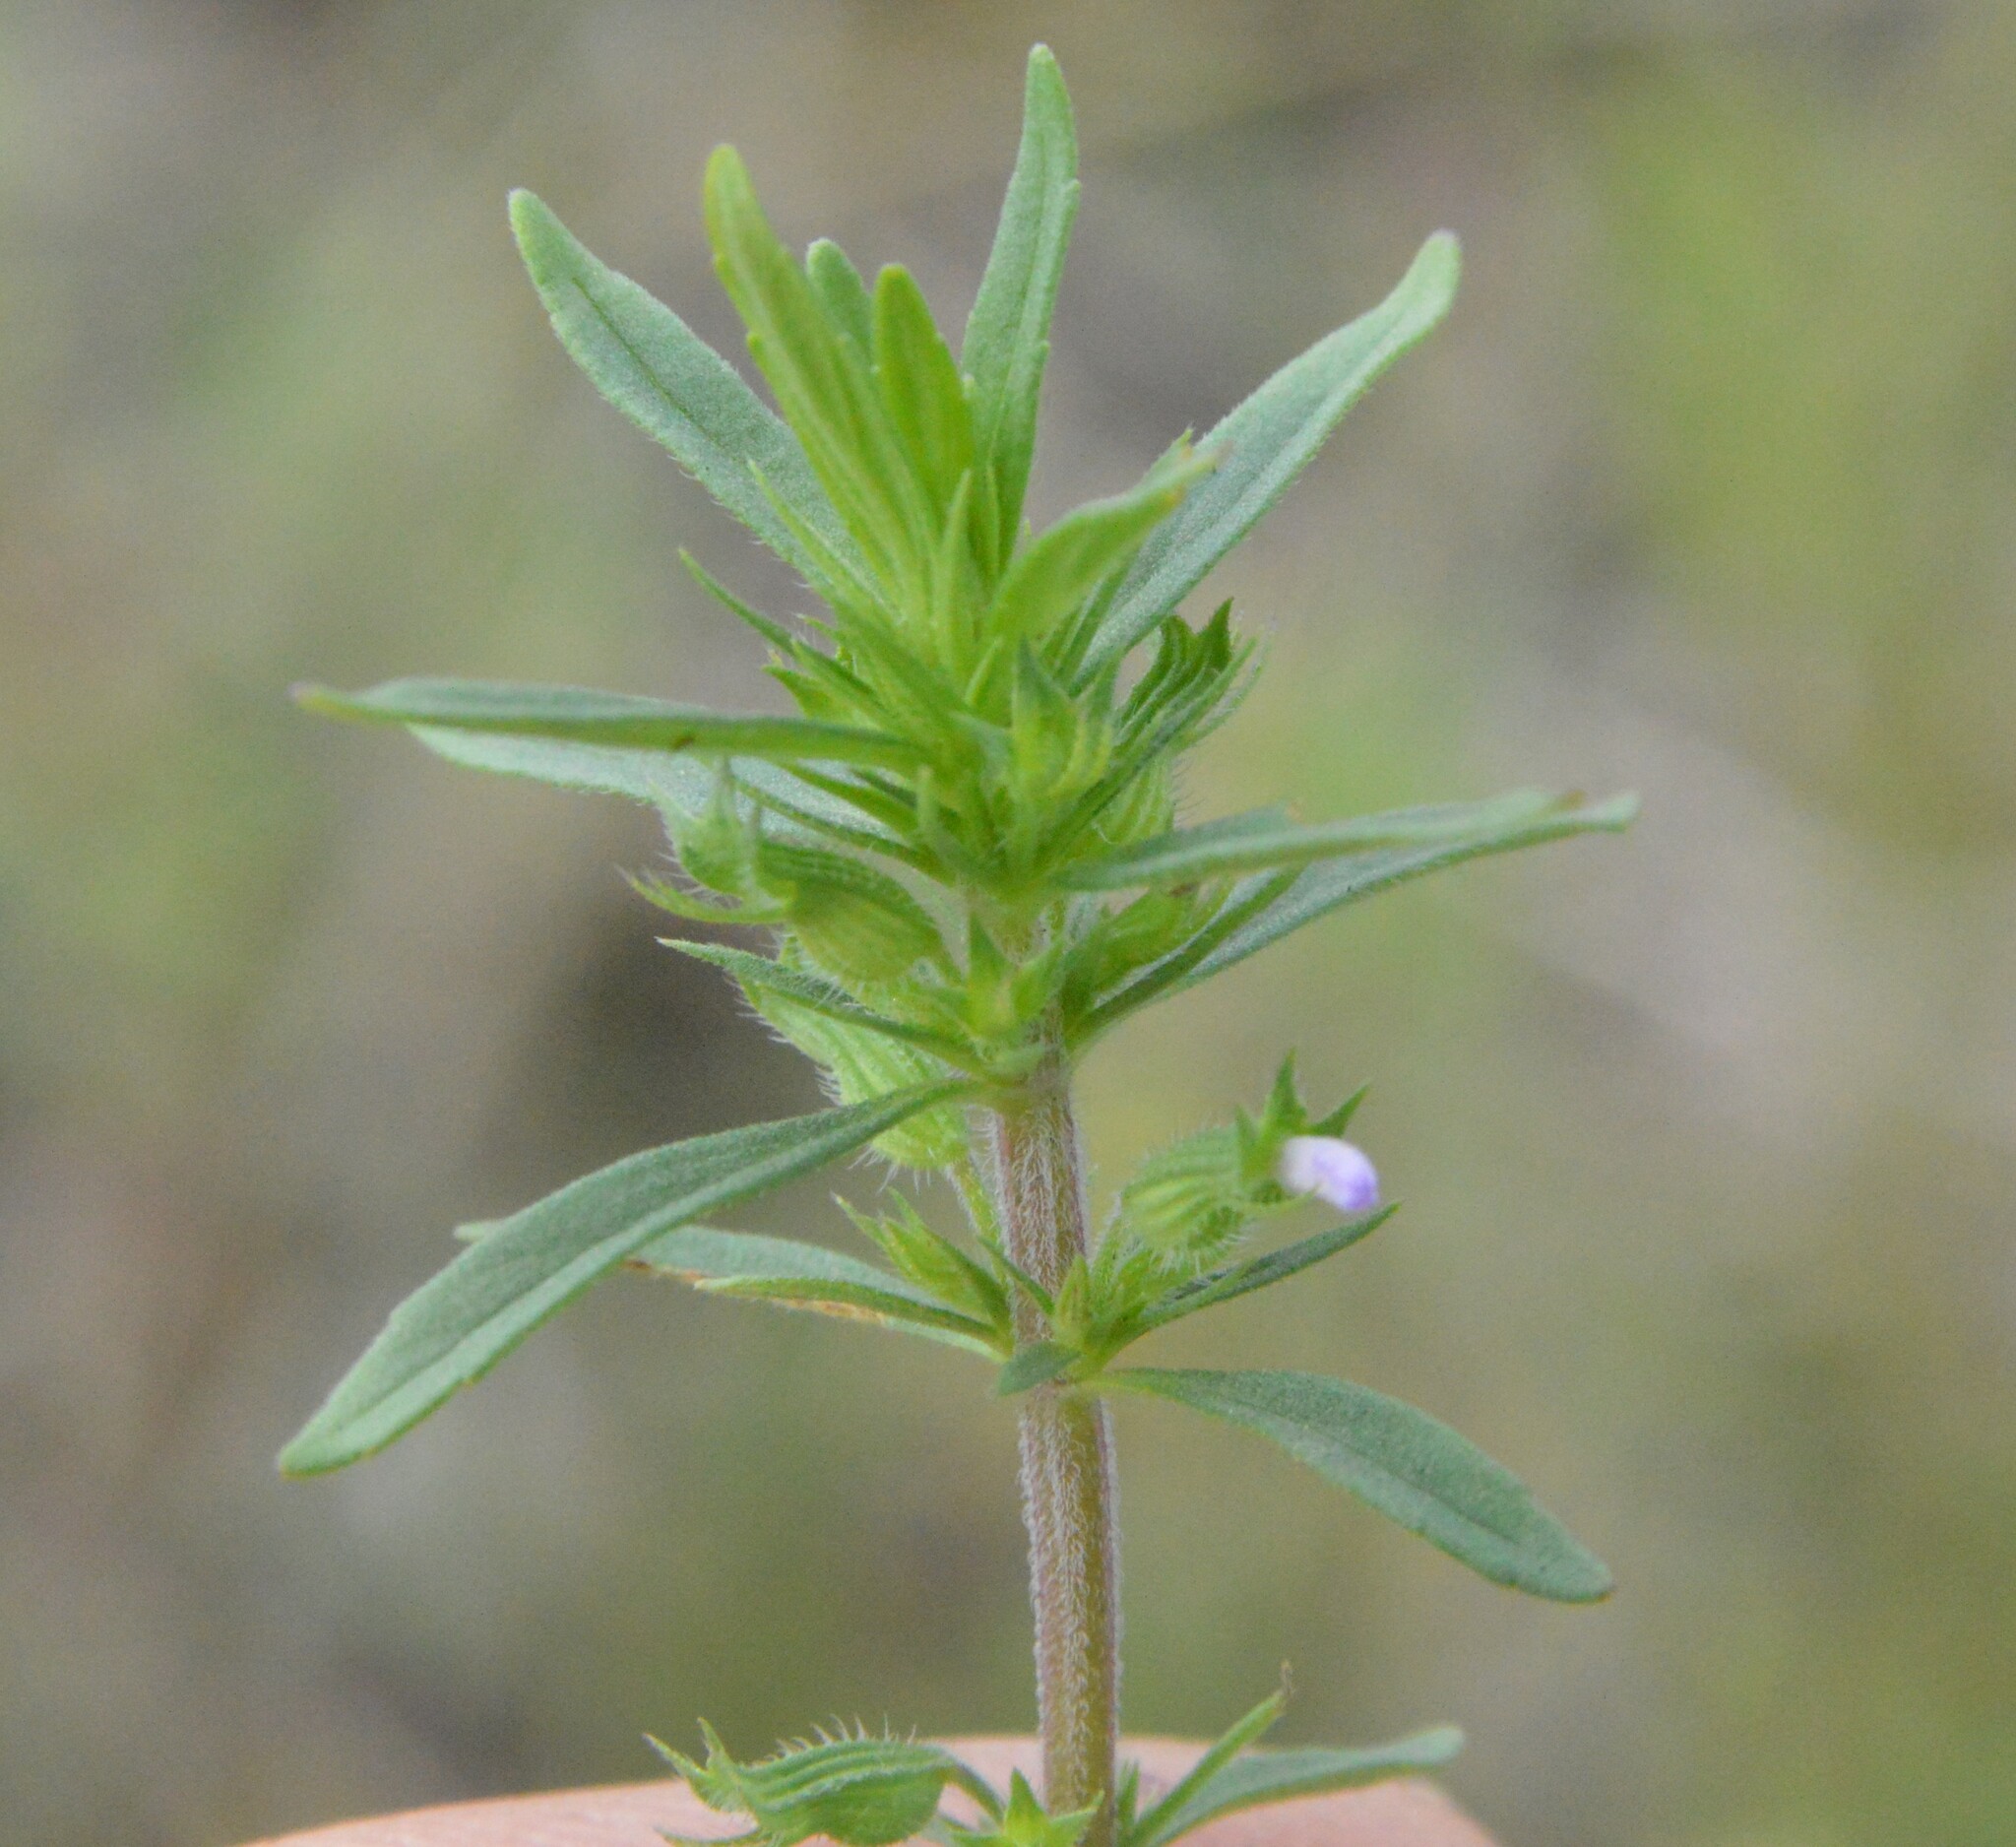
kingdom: Plantae
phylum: Tracheophyta
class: Magnoliopsida
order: Lamiales
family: Lamiaceae
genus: Hedeoma
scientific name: Hedeoma hispida
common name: Mock pennyroyal
